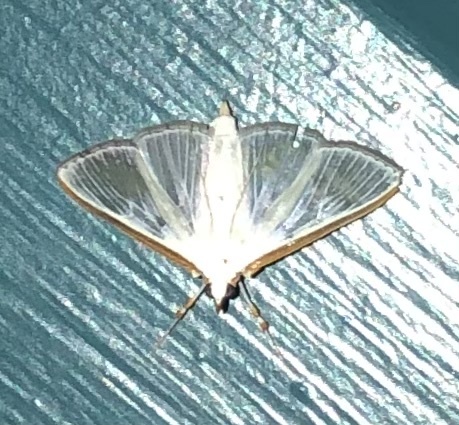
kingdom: Animalia
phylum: Arthropoda
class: Insecta
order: Lepidoptera
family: Crambidae
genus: Diaphania
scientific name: Diaphania costata
